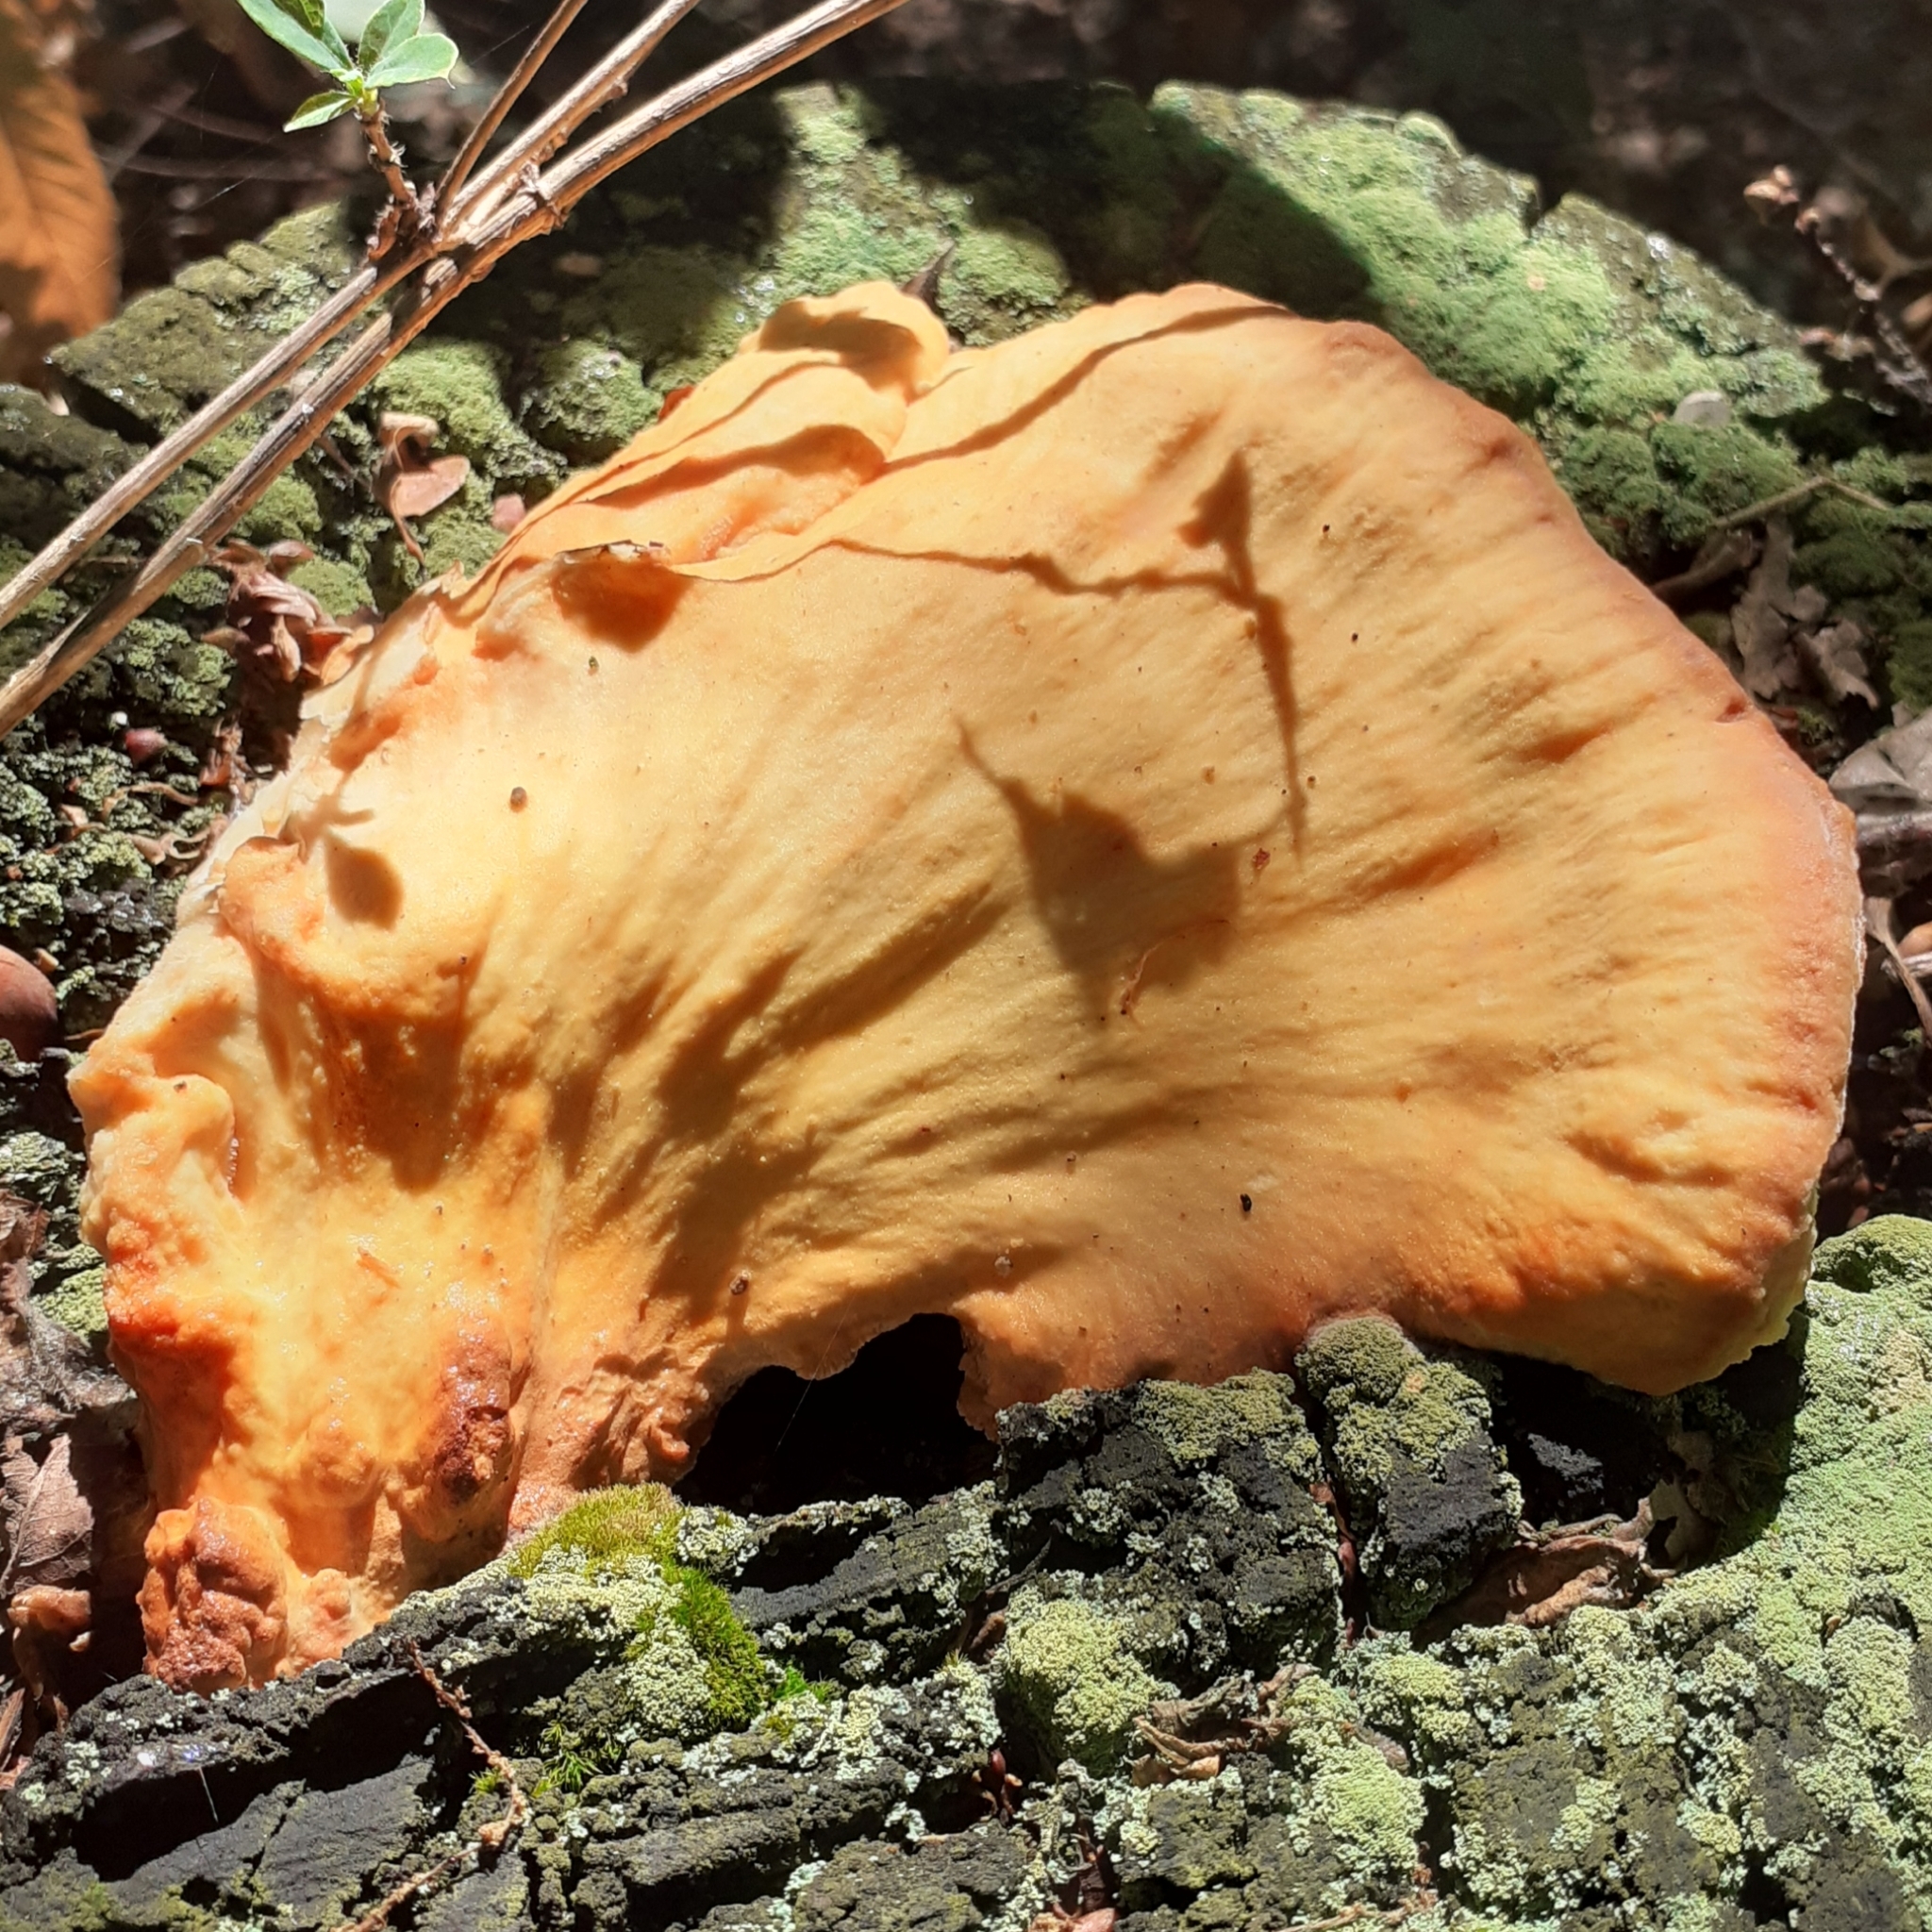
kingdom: Fungi
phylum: Basidiomycota
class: Agaricomycetes
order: Polyporales
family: Laetiporaceae
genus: Laetiporus
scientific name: Laetiporus sulphureus
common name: Chicken of the woods
